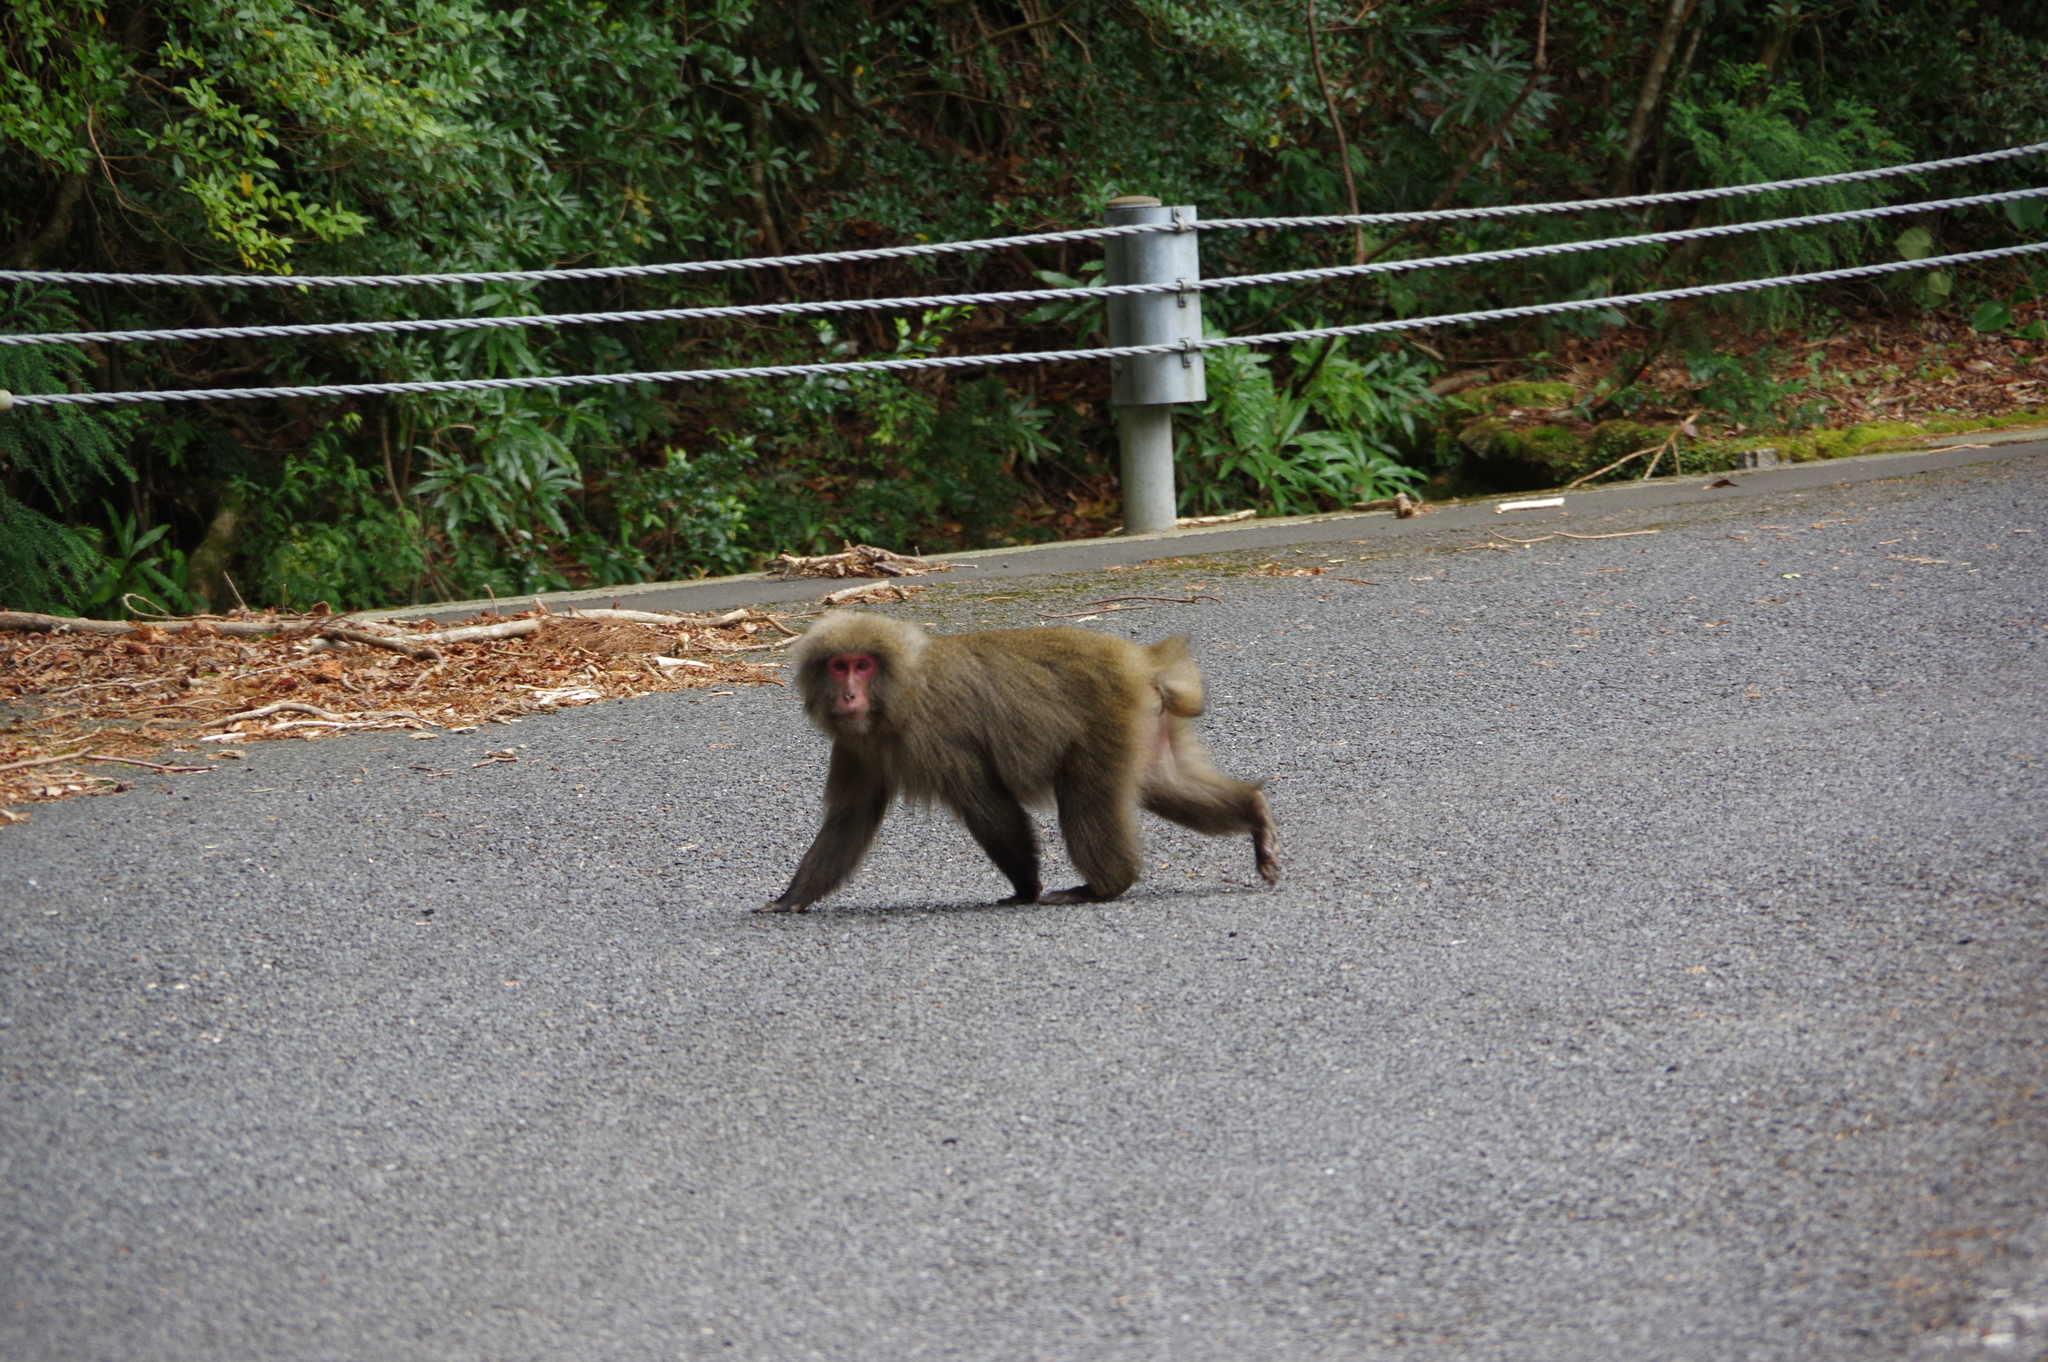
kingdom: Animalia
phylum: Chordata
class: Mammalia
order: Primates
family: Cercopithecidae
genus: Macaca
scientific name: Macaca fuscata
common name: Japanese macaque
